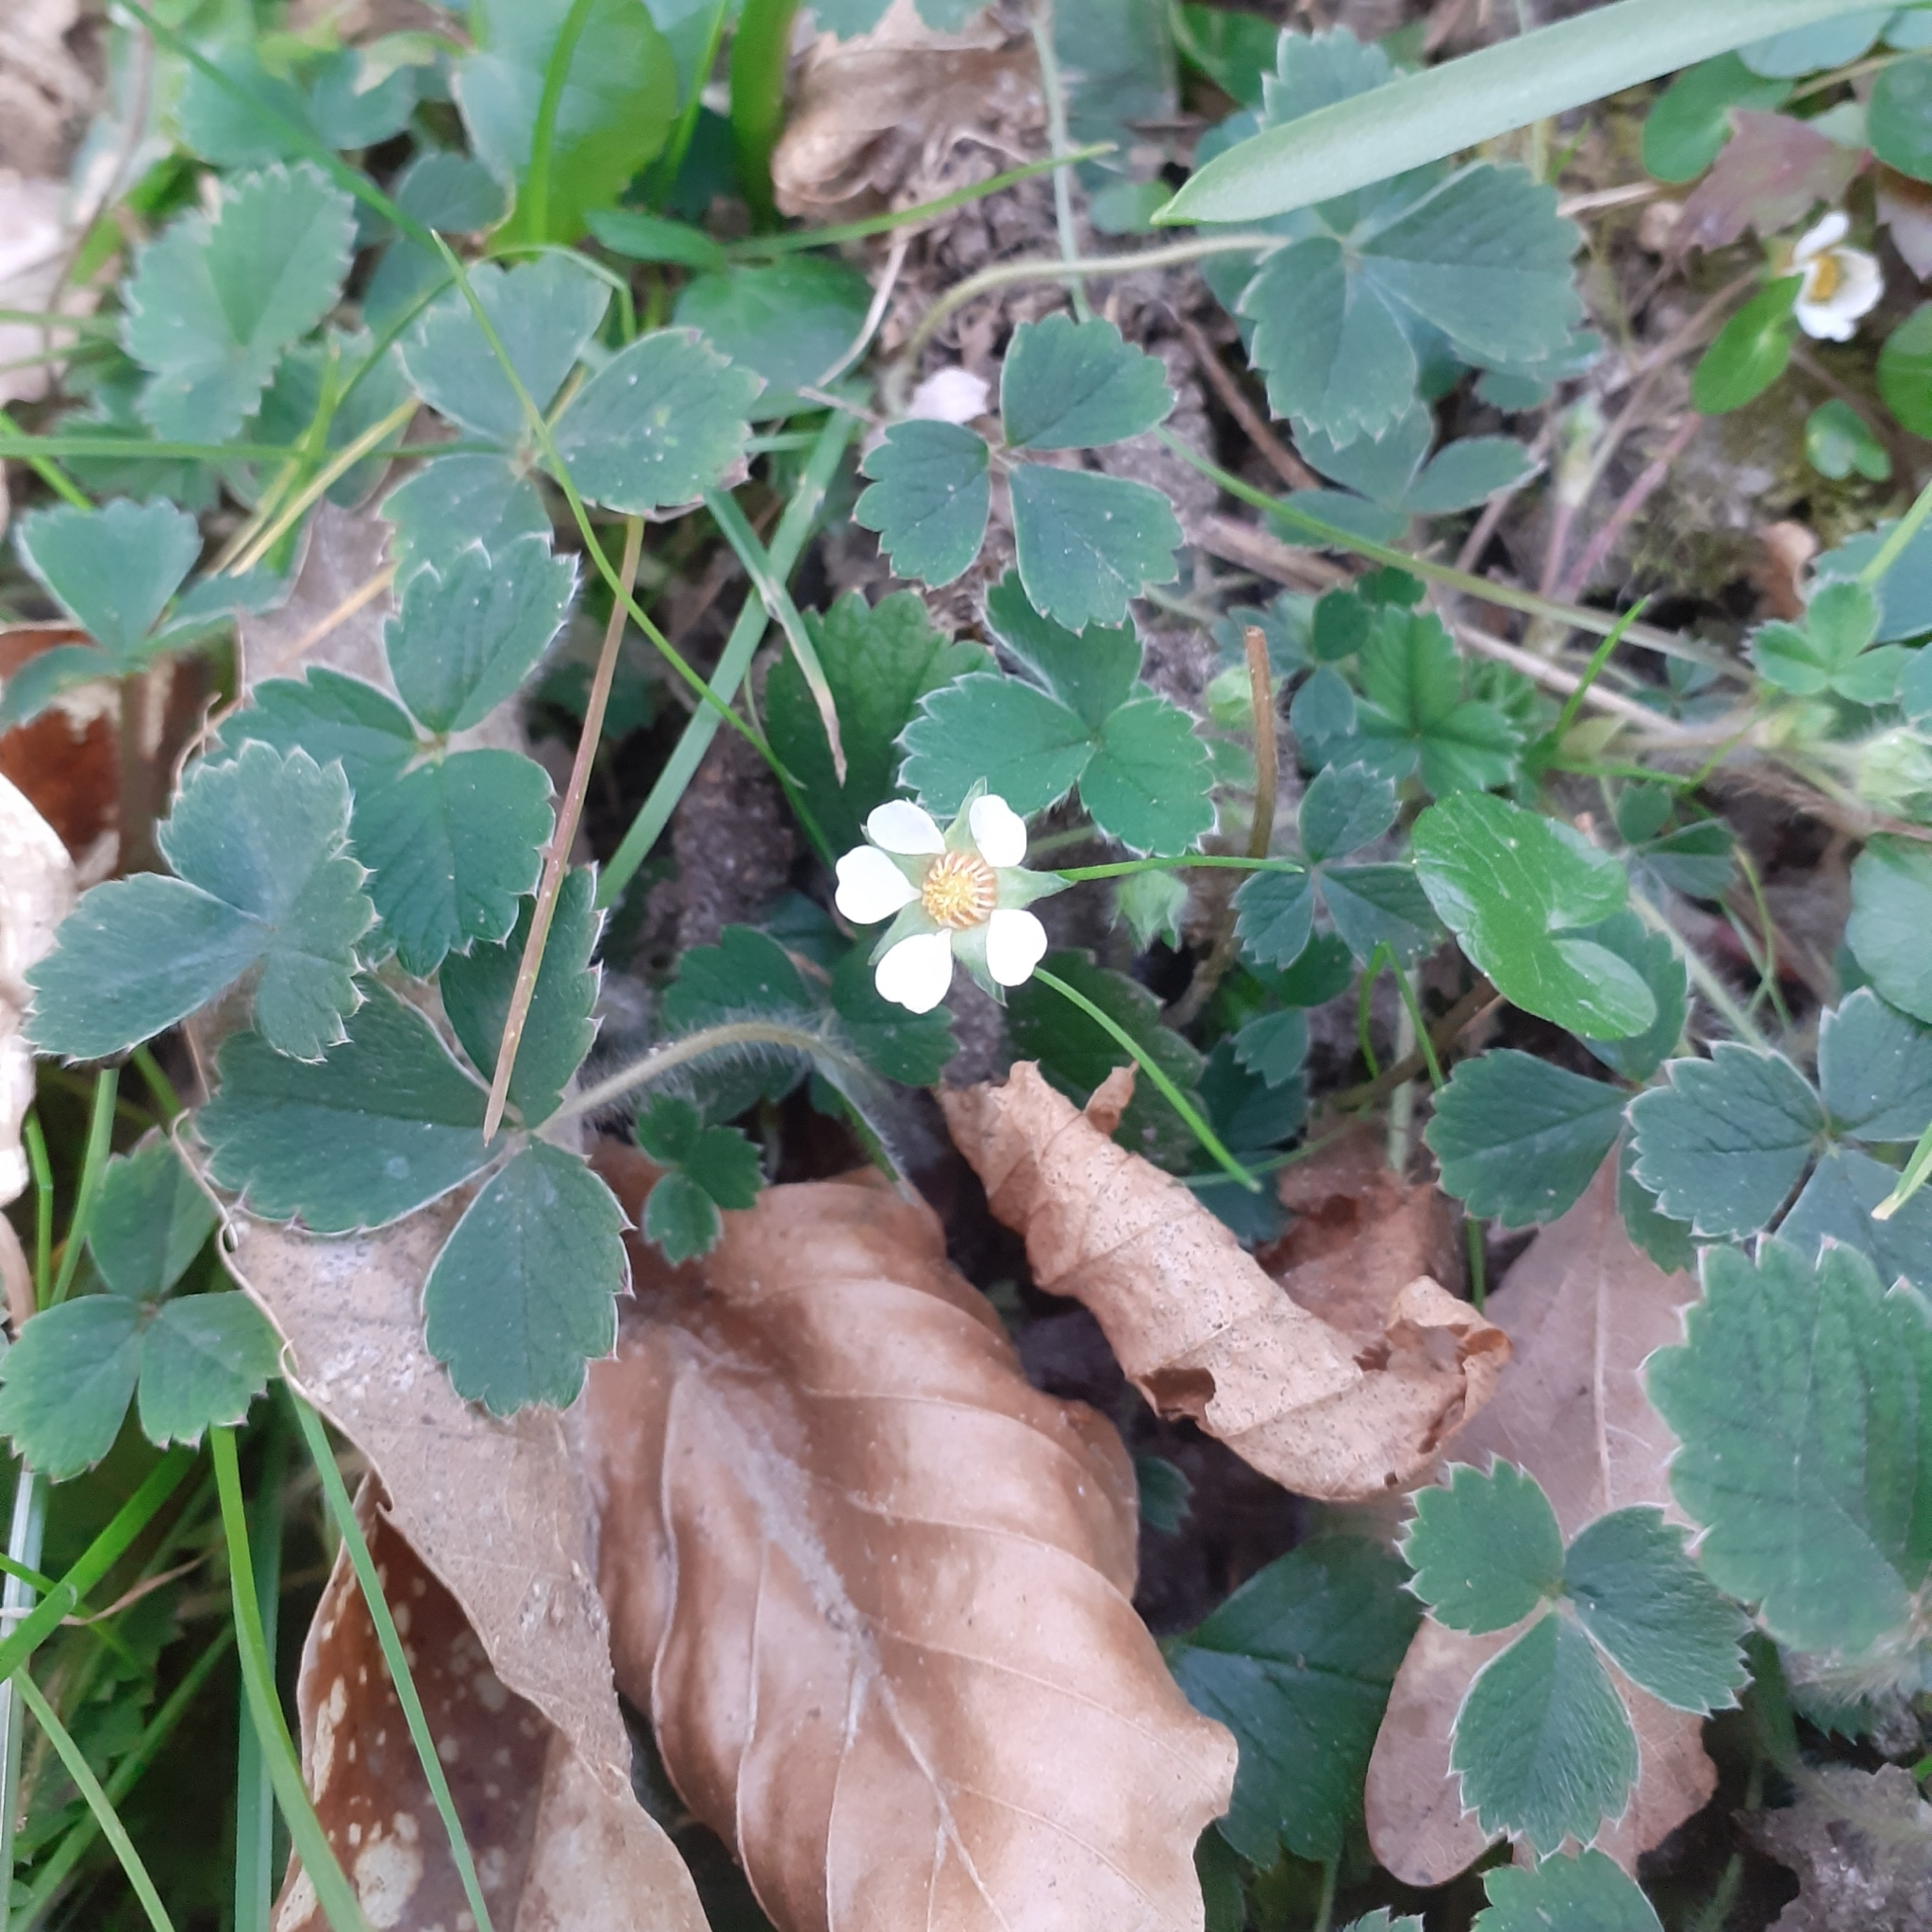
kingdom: Plantae
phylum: Tracheophyta
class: Magnoliopsida
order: Rosales
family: Rosaceae
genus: Potentilla
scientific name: Potentilla sterilis
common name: Barren strawberry
